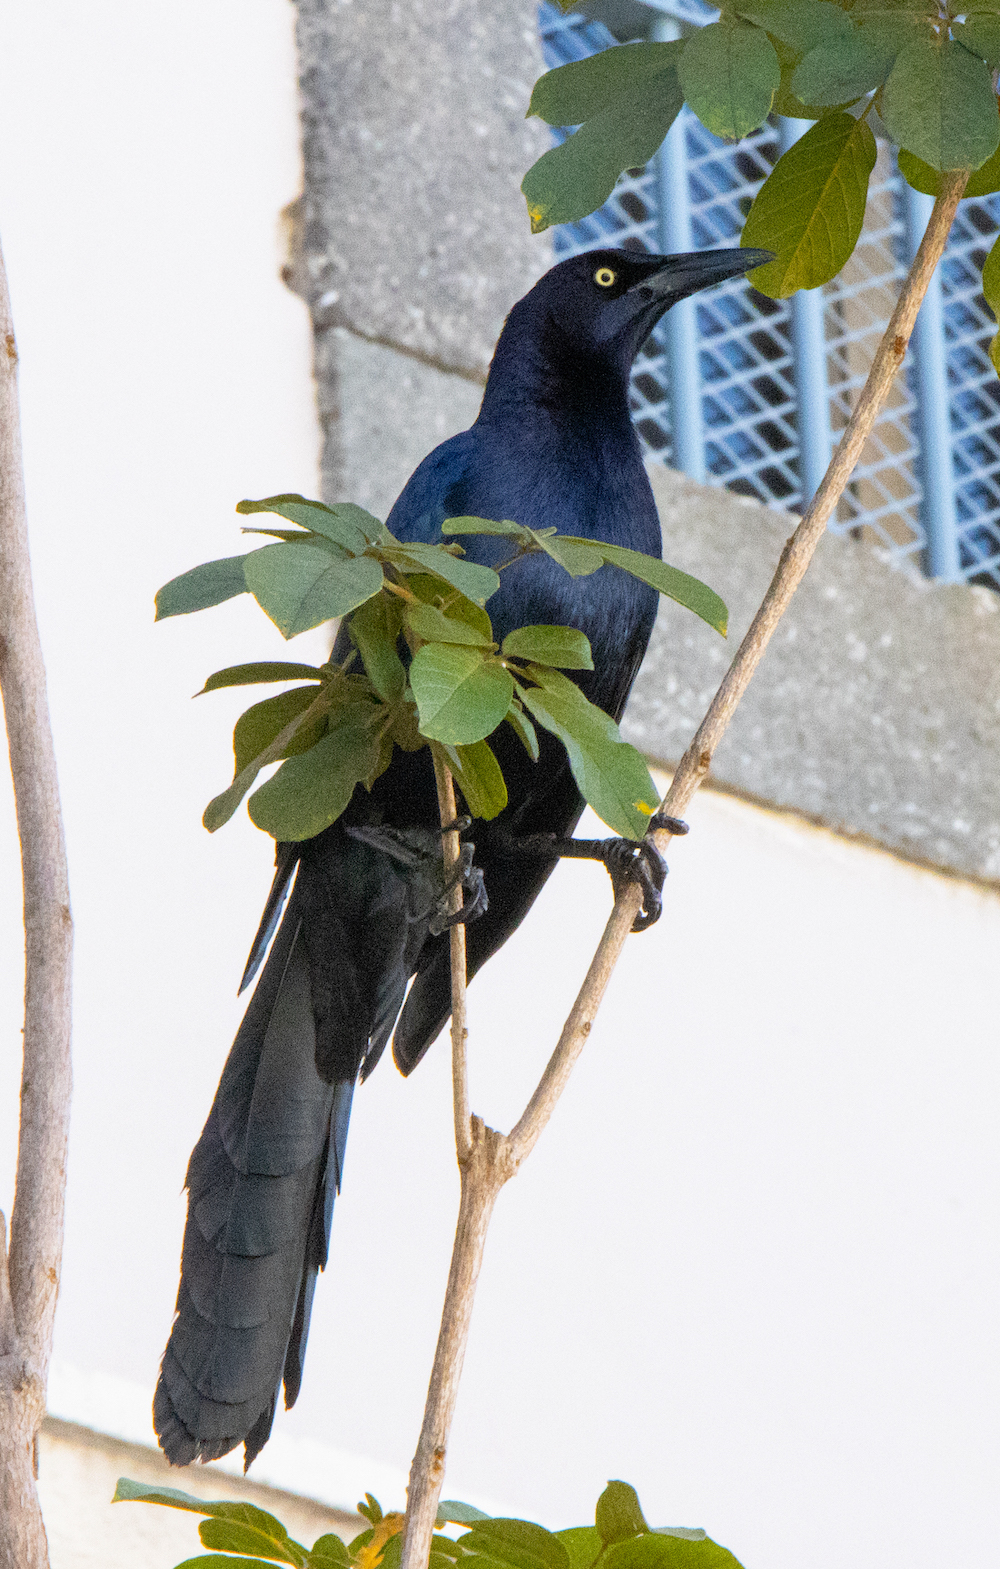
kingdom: Animalia
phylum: Chordata
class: Aves
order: Passeriformes
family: Icteridae
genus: Quiscalus
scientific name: Quiscalus mexicanus
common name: Great-tailed grackle
